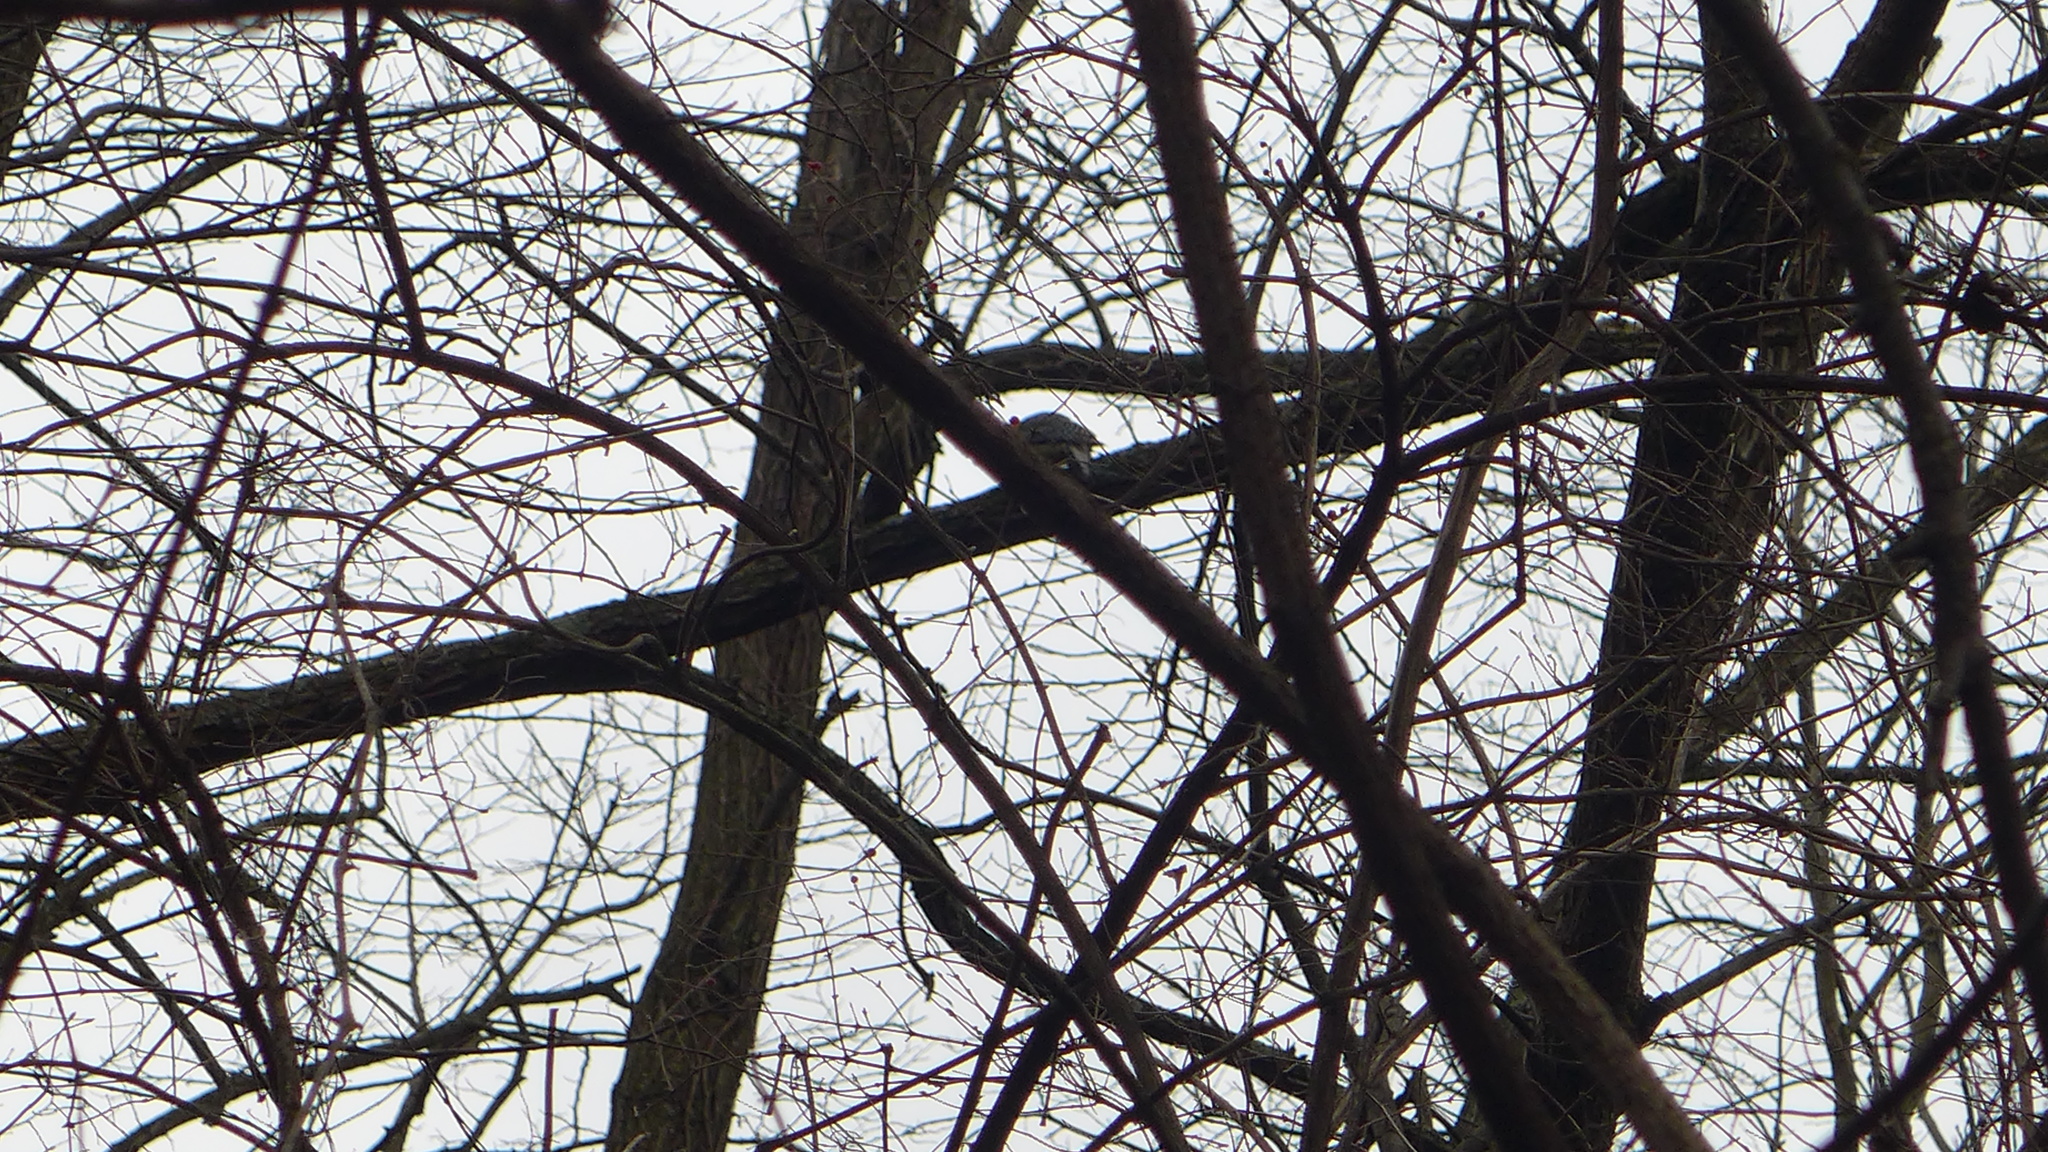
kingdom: Animalia
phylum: Chordata
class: Aves
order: Piciformes
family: Picidae
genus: Melanerpes
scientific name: Melanerpes carolinus
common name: Red-bellied woodpecker
